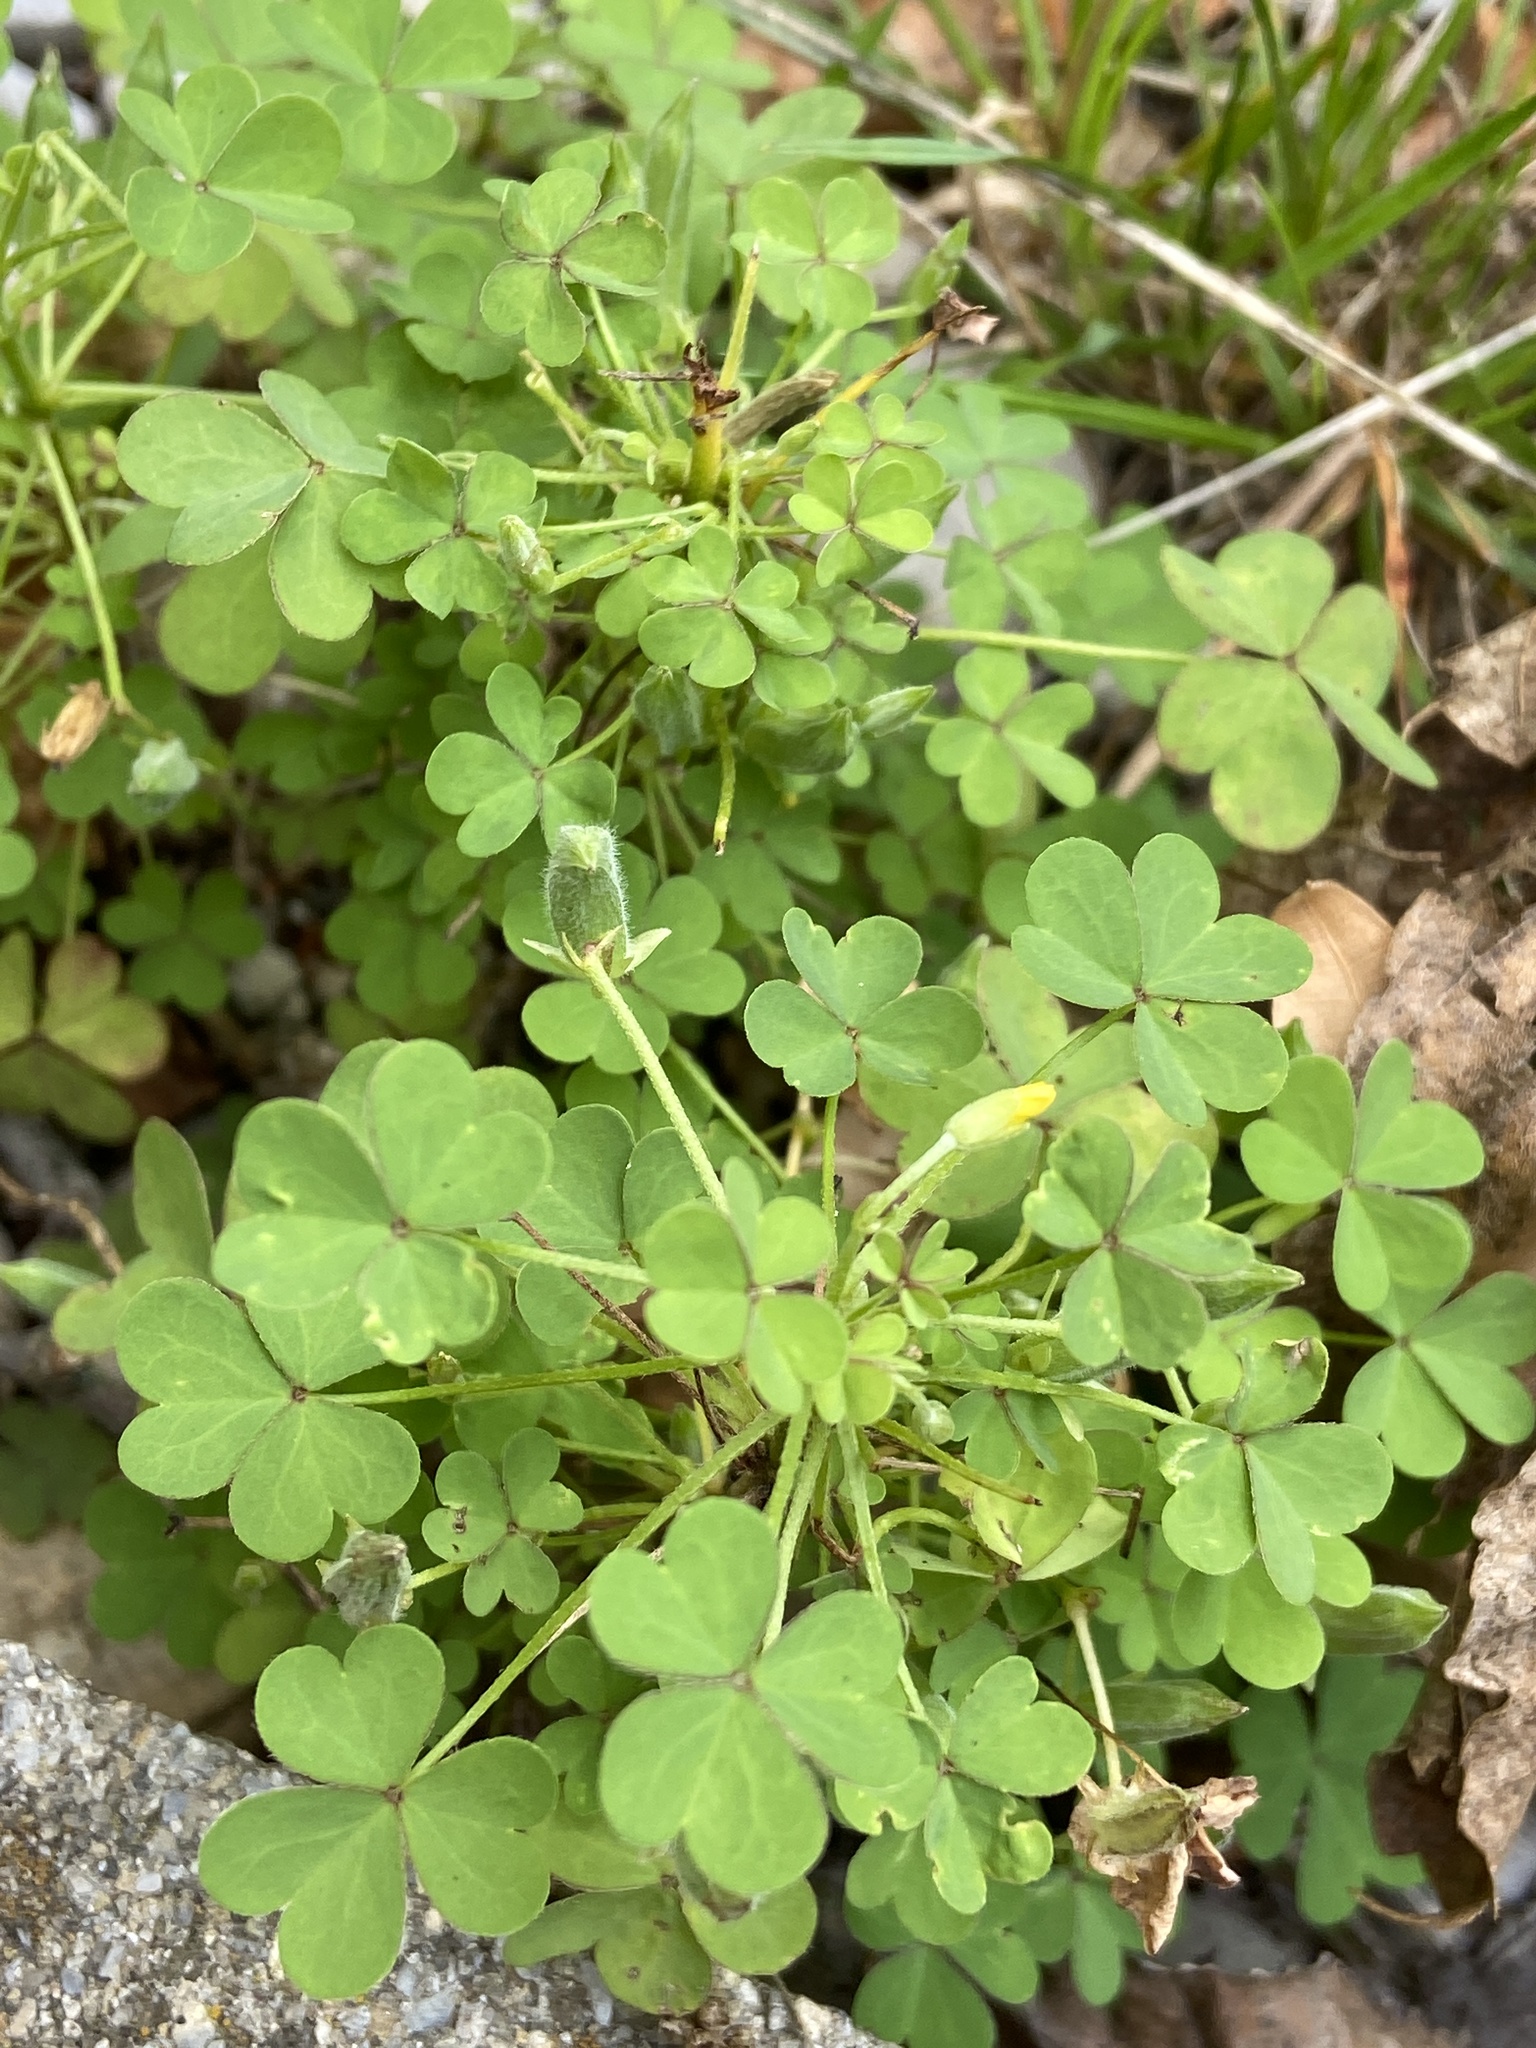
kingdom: Plantae
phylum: Tracheophyta
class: Magnoliopsida
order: Oxalidales
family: Oxalidaceae
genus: Oxalis
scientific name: Oxalis corniculata
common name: Procumbent yellow-sorrel
